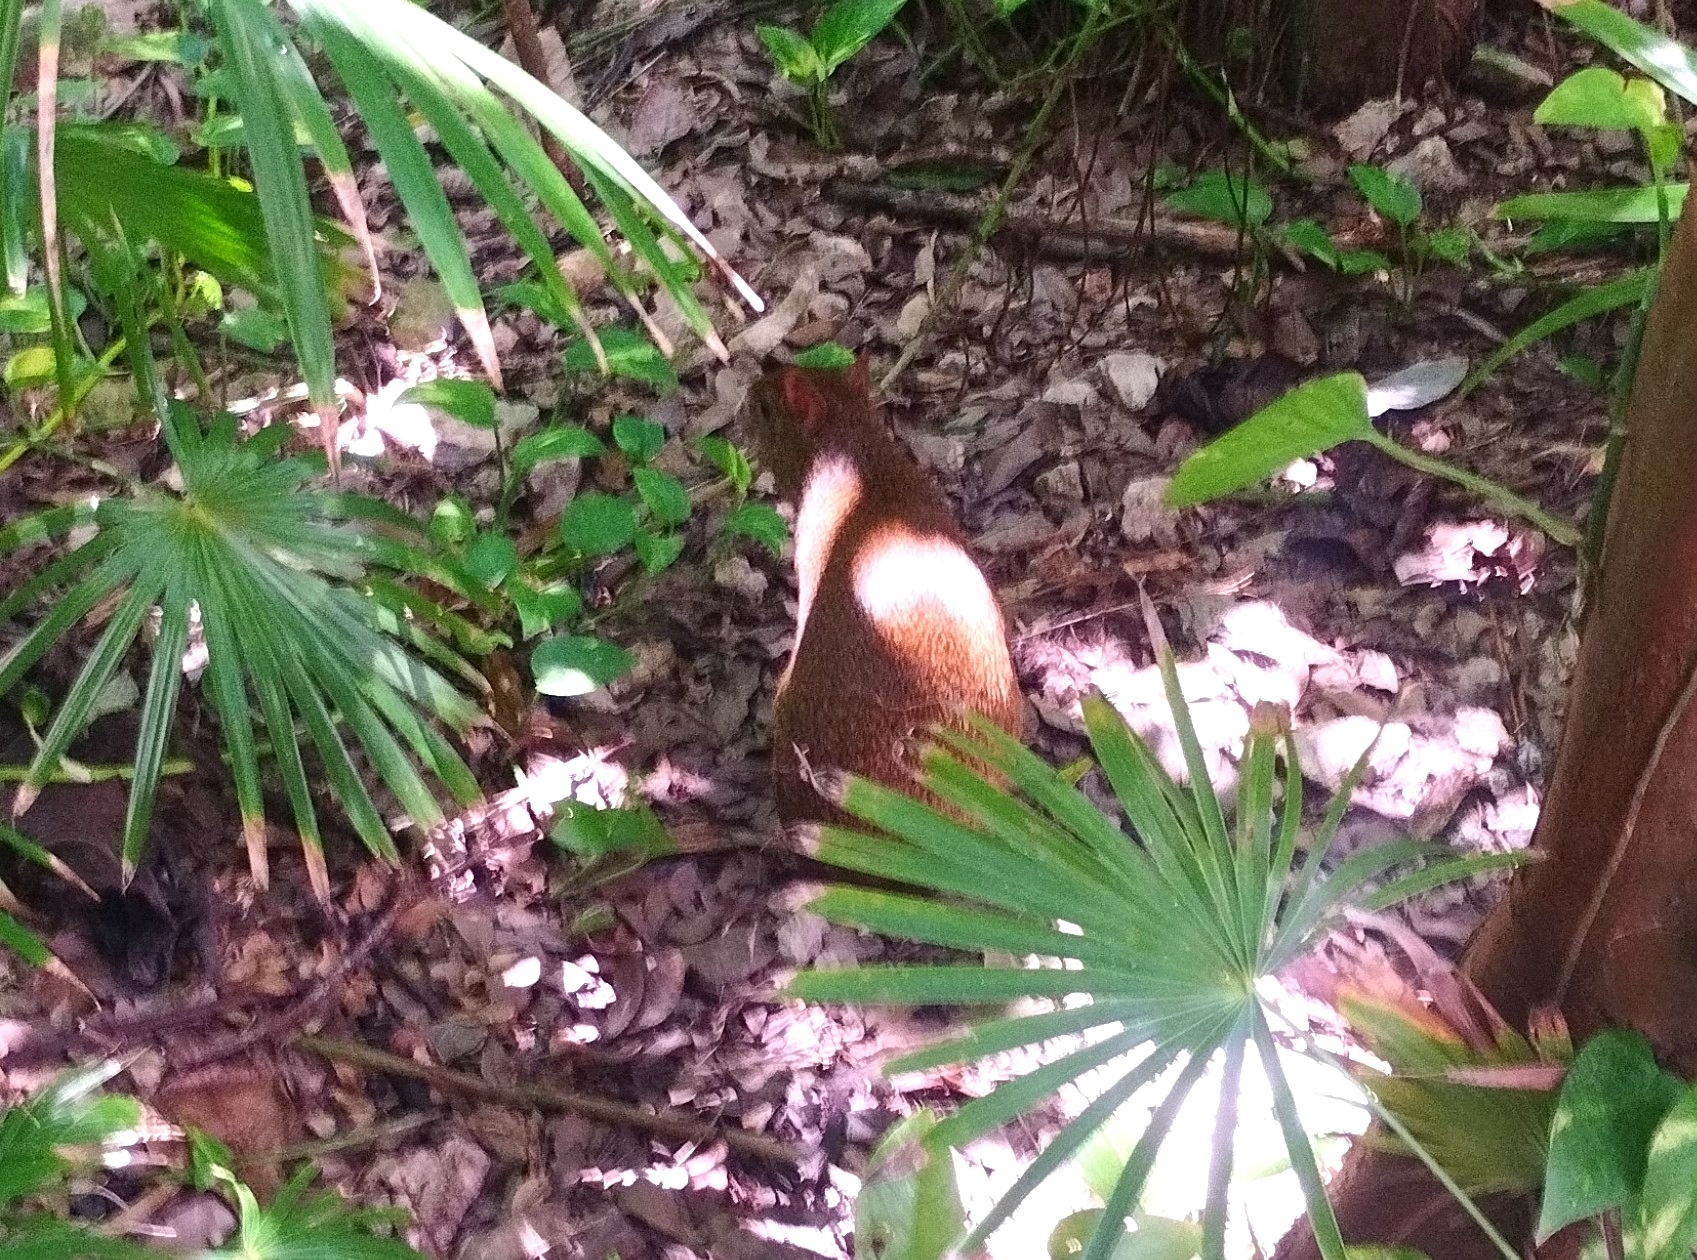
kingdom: Animalia
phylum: Chordata
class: Mammalia
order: Rodentia
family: Dasyproctidae
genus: Dasyprocta
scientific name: Dasyprocta punctata
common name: Central american agouti
